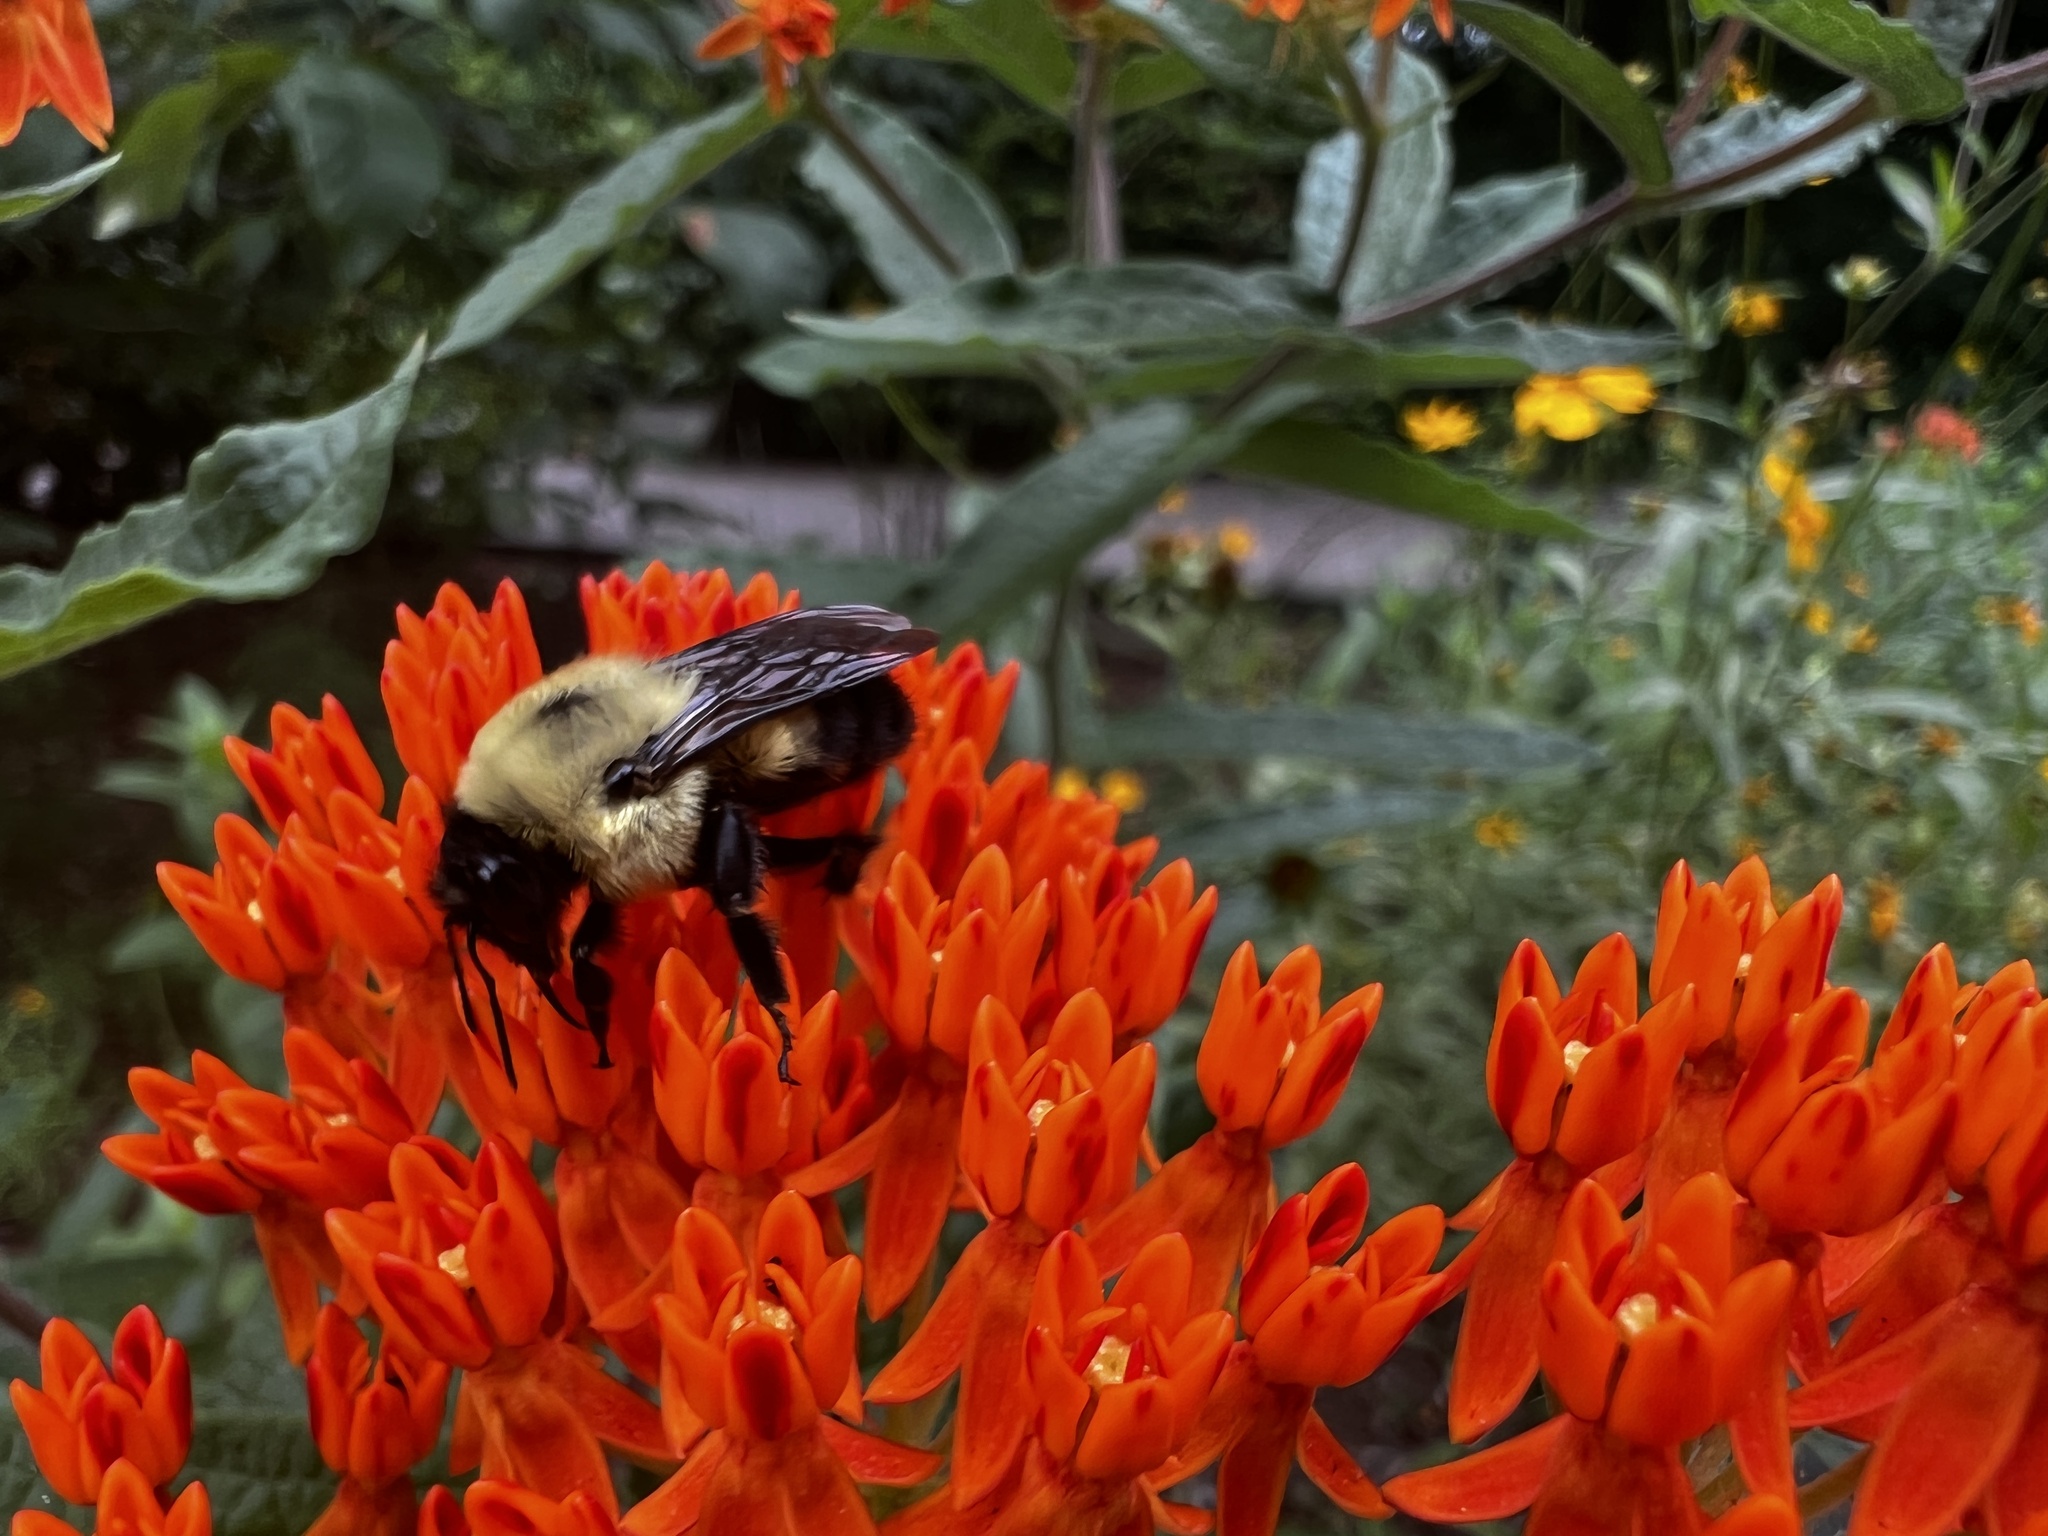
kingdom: Animalia
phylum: Arthropoda
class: Insecta
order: Hymenoptera
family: Apidae
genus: Bombus
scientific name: Bombus griseocollis
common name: Brown-belted bumble bee
